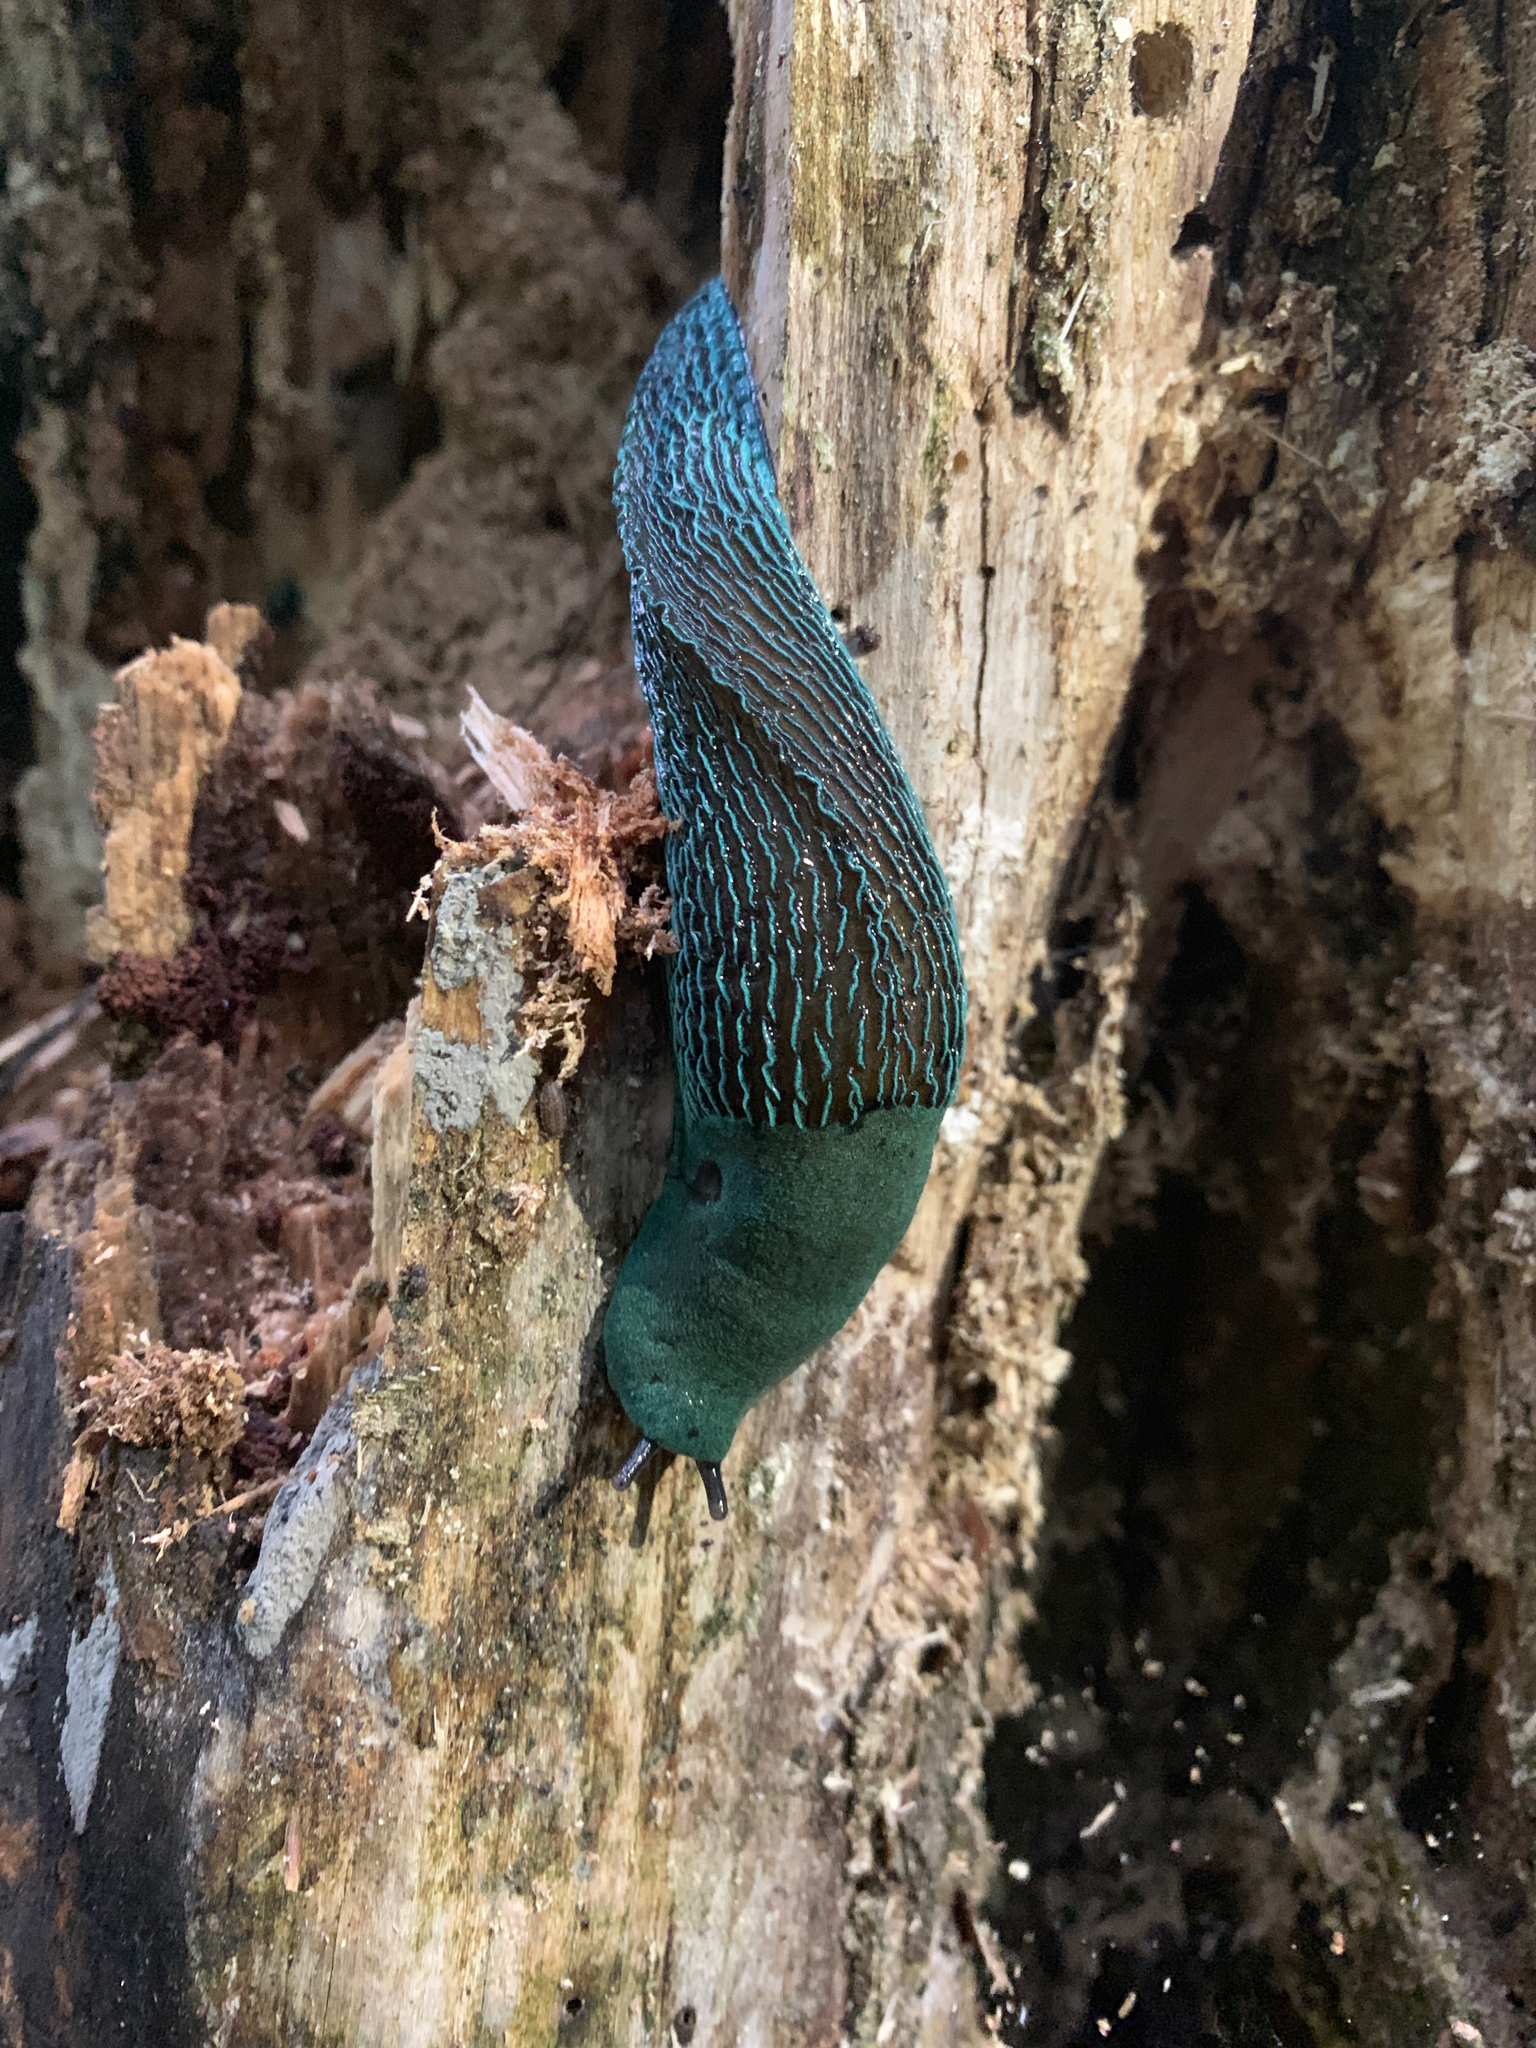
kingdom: Animalia
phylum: Mollusca
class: Gastropoda
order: Stylommatophora
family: Limacidae
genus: Bielzia
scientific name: Bielzia coerulans
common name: Carpathian blue slug
